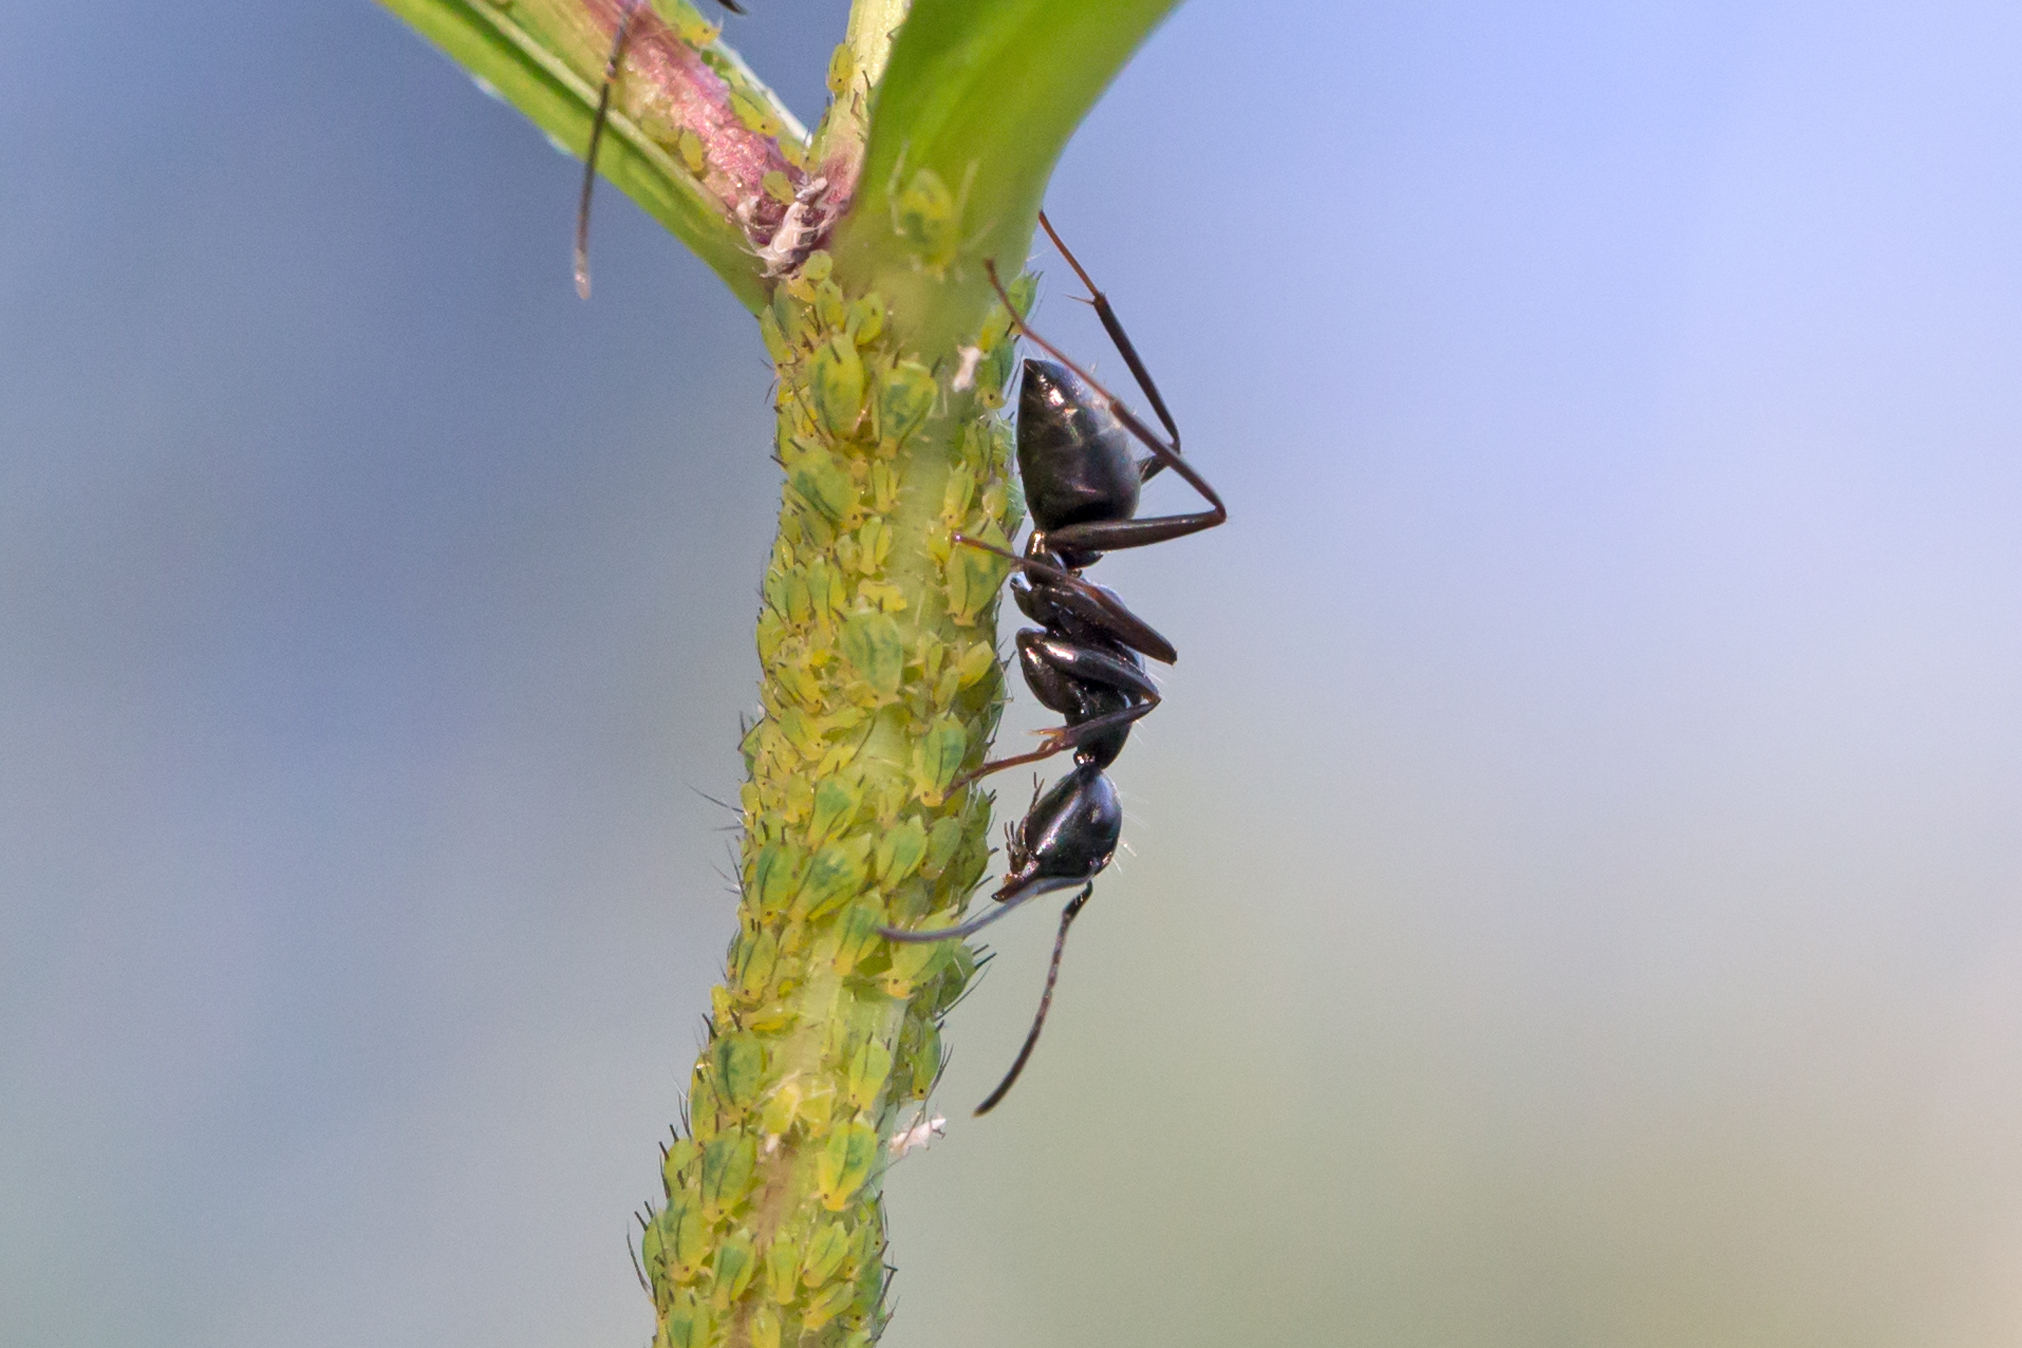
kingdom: Animalia
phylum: Arthropoda
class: Insecta
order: Hymenoptera
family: Formicidae
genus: Camponotus
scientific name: Camponotus pennsylvanicus
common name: Black carpenter ant
